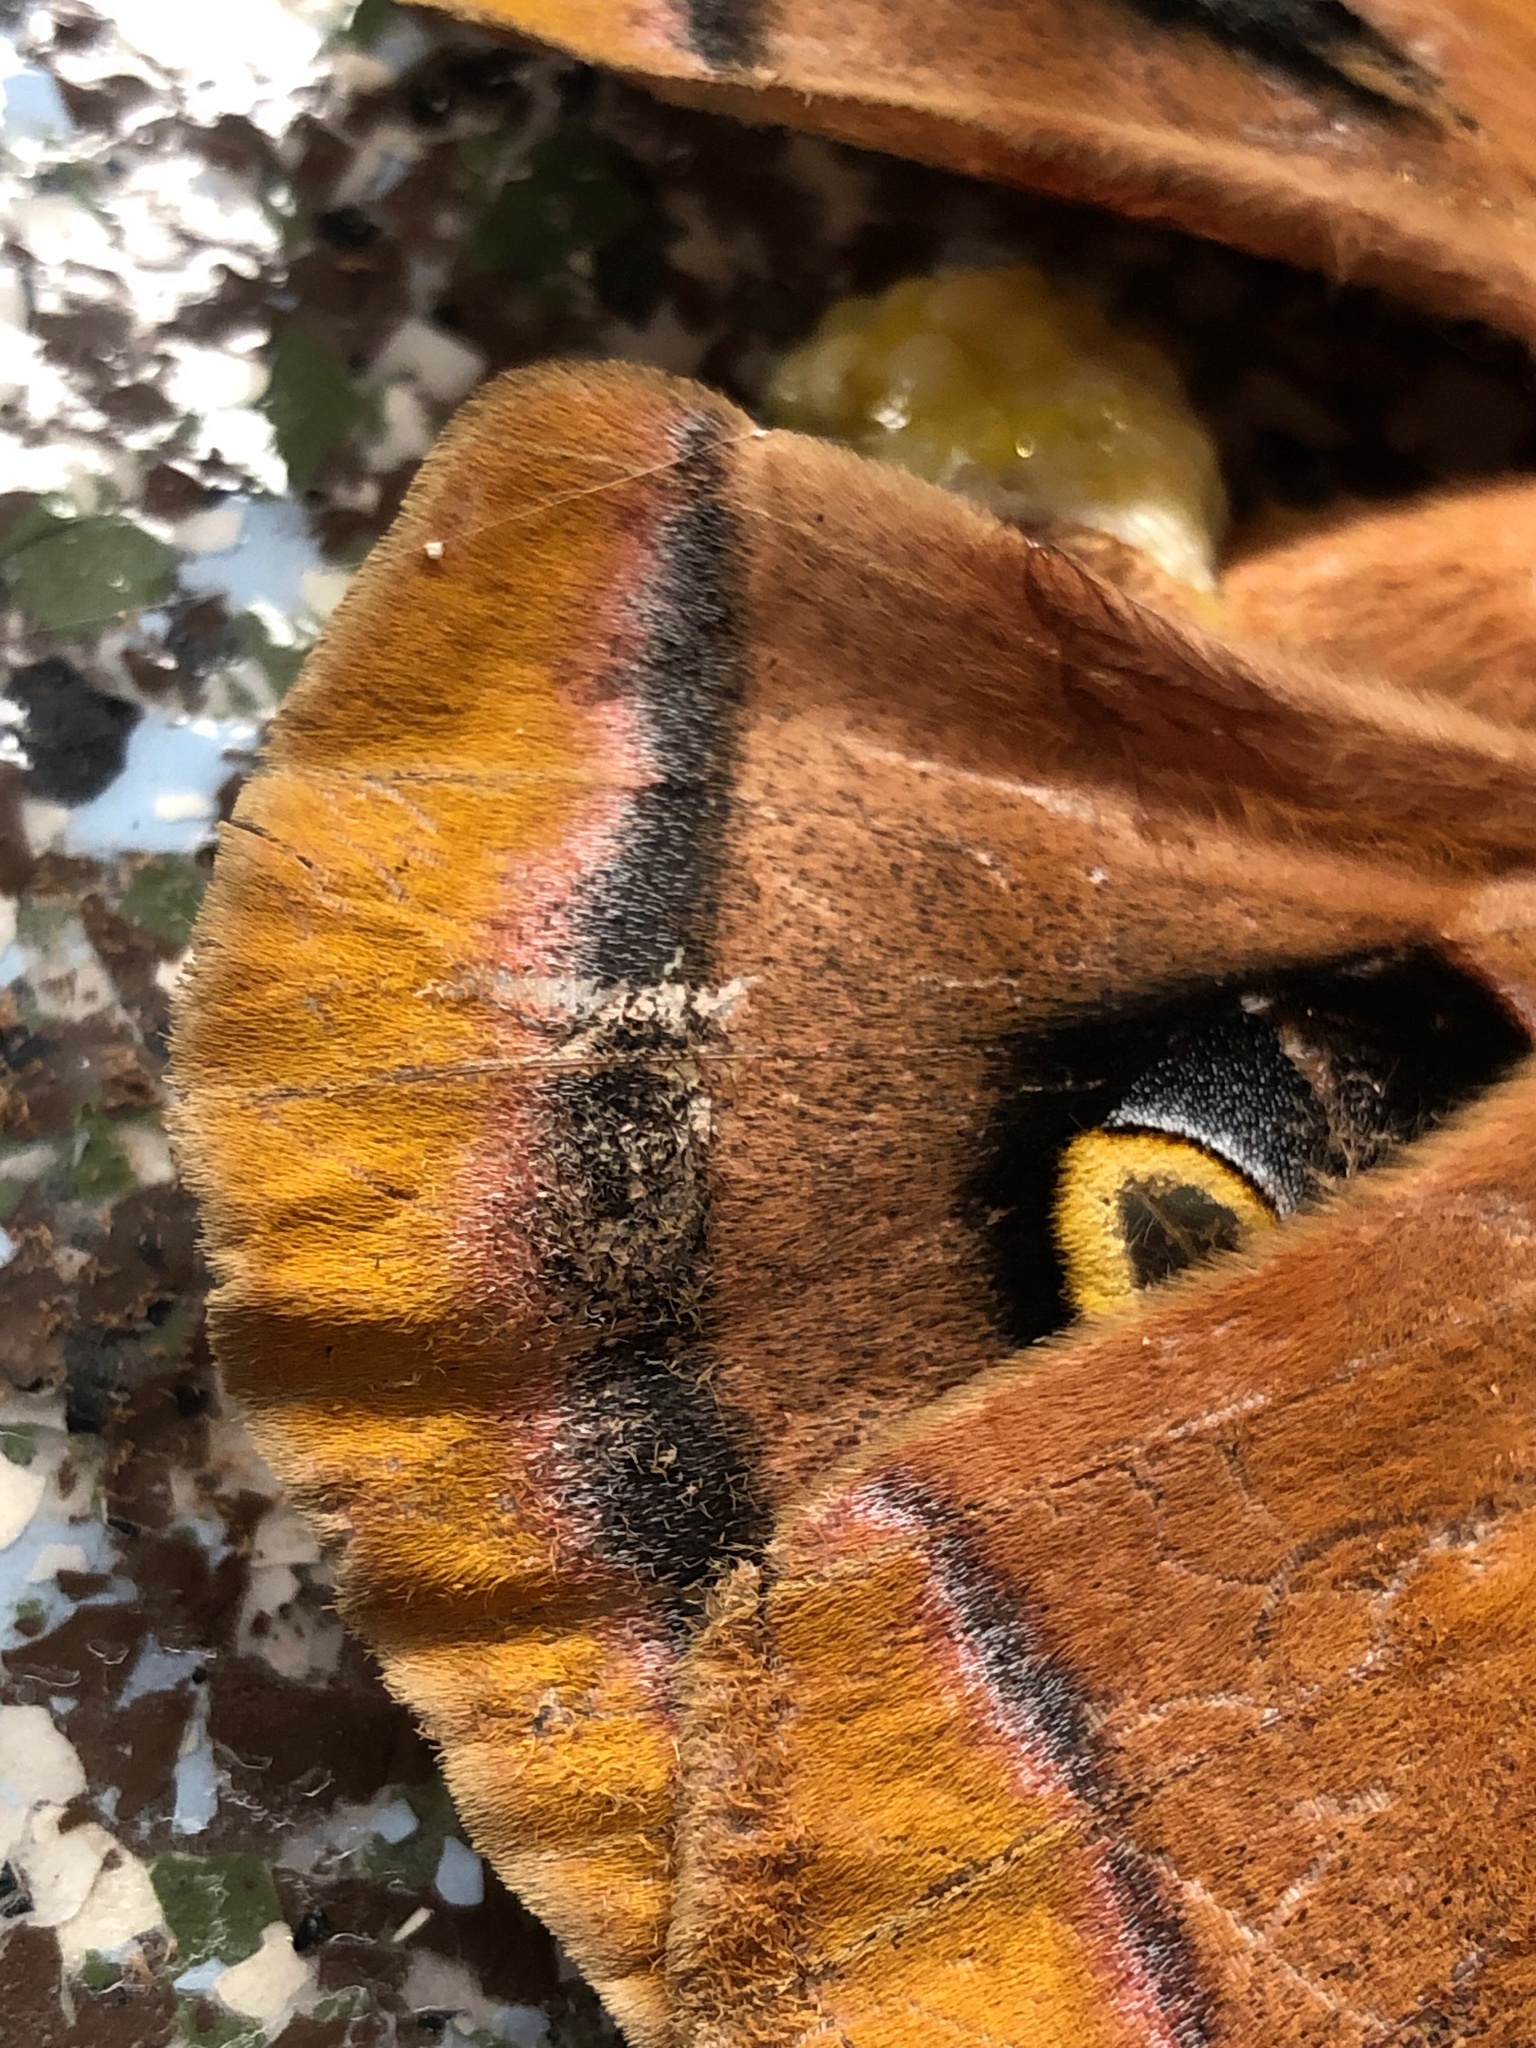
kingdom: Animalia
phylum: Arthropoda
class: Insecta
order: Lepidoptera
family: Saturniidae
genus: Antheraea
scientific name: Antheraea polyphemus
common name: Polyphemus moth
